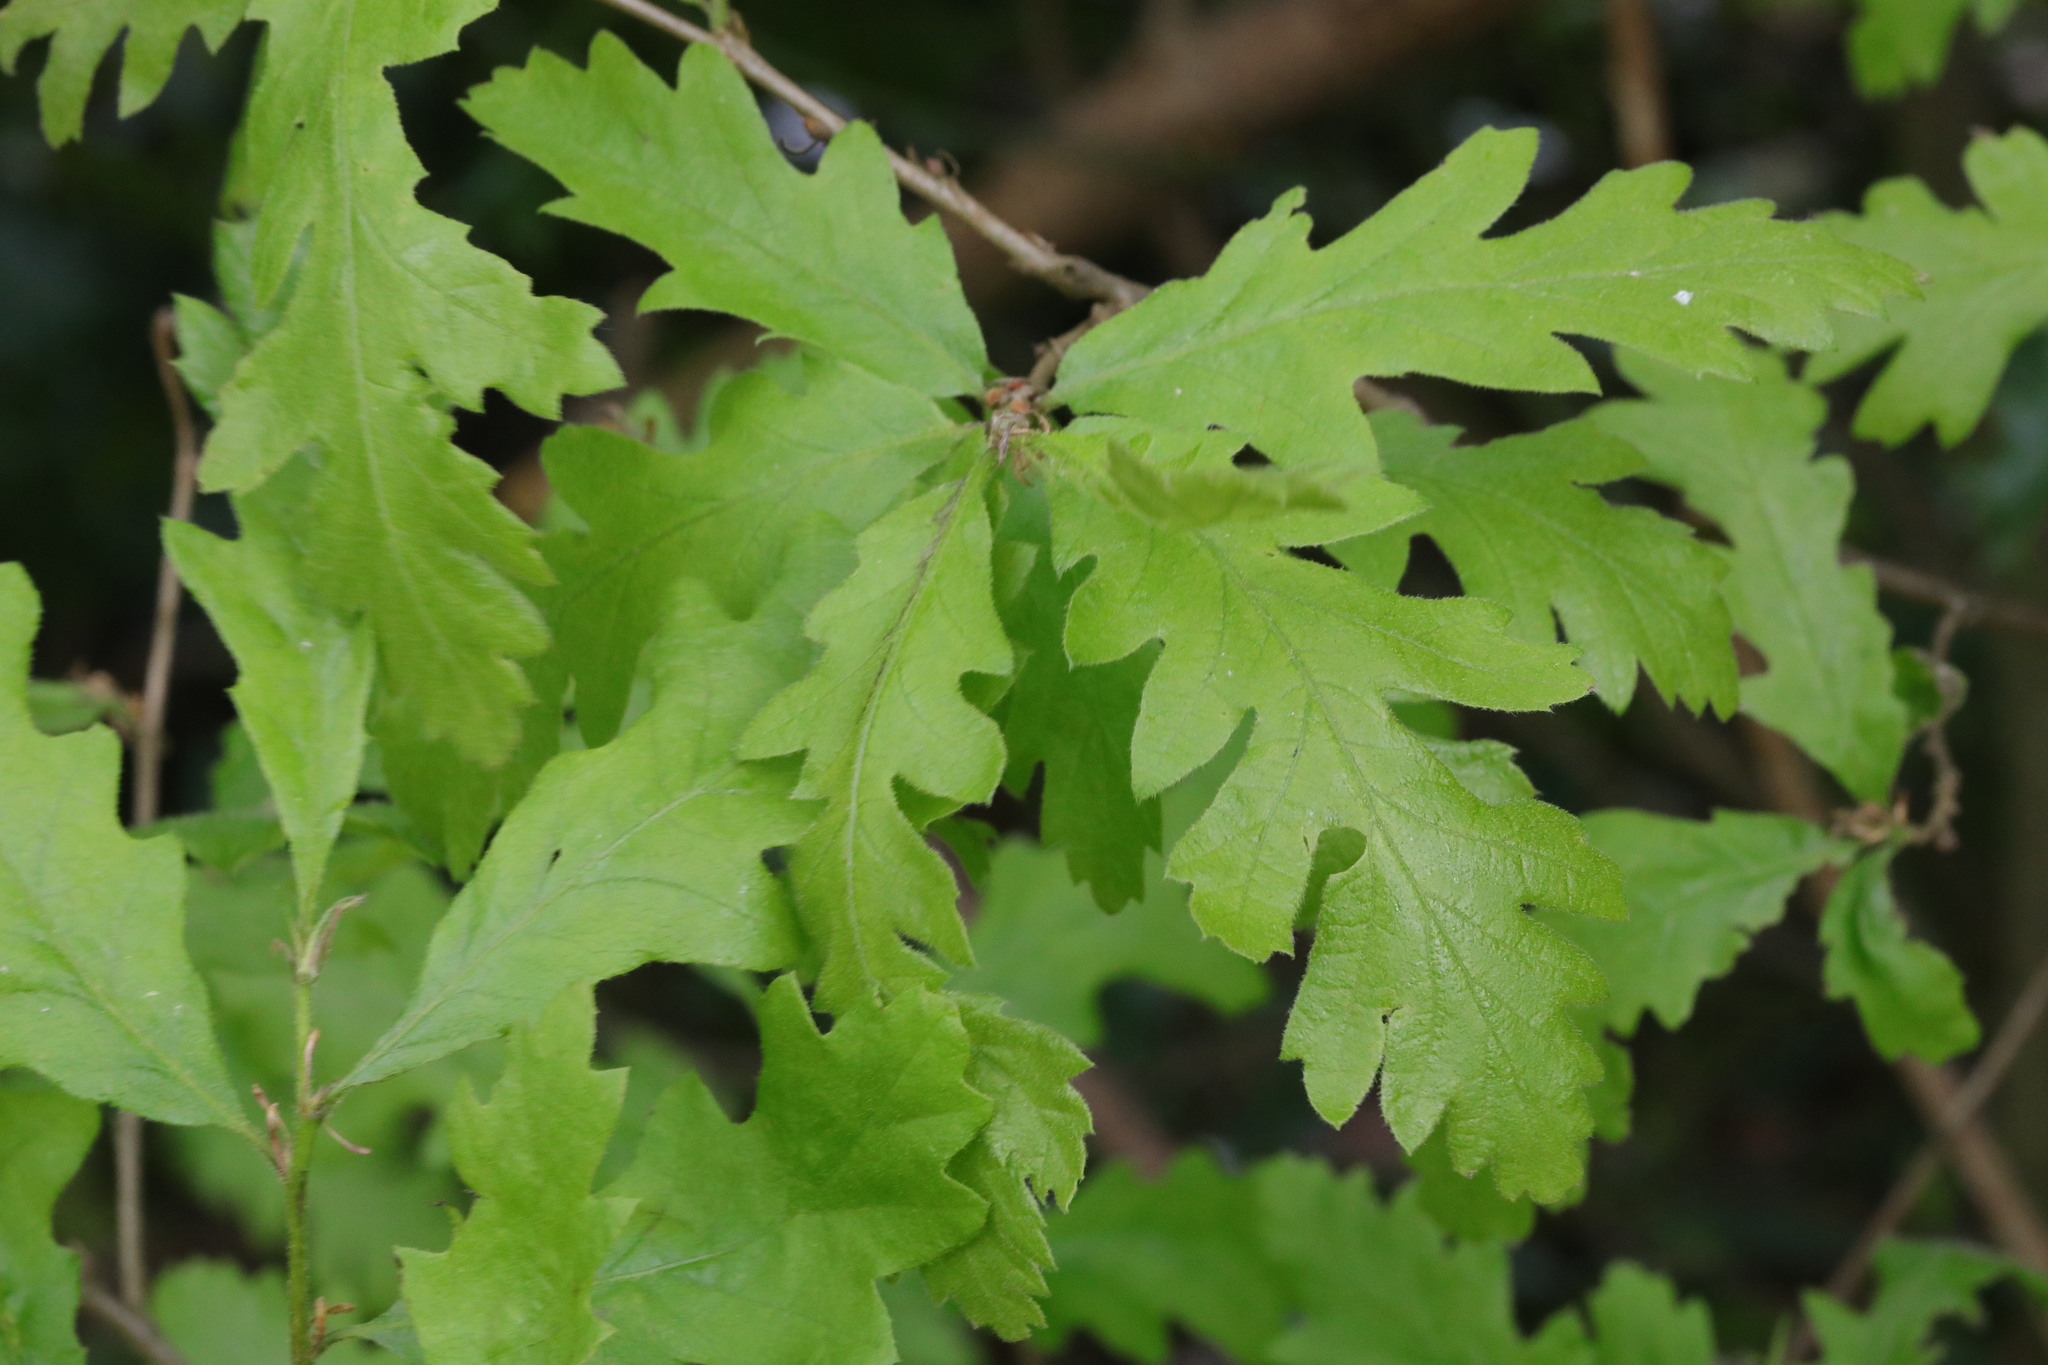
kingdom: Plantae
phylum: Tracheophyta
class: Magnoliopsida
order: Fagales
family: Fagaceae
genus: Quercus
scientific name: Quercus cerris
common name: Turkey oak
